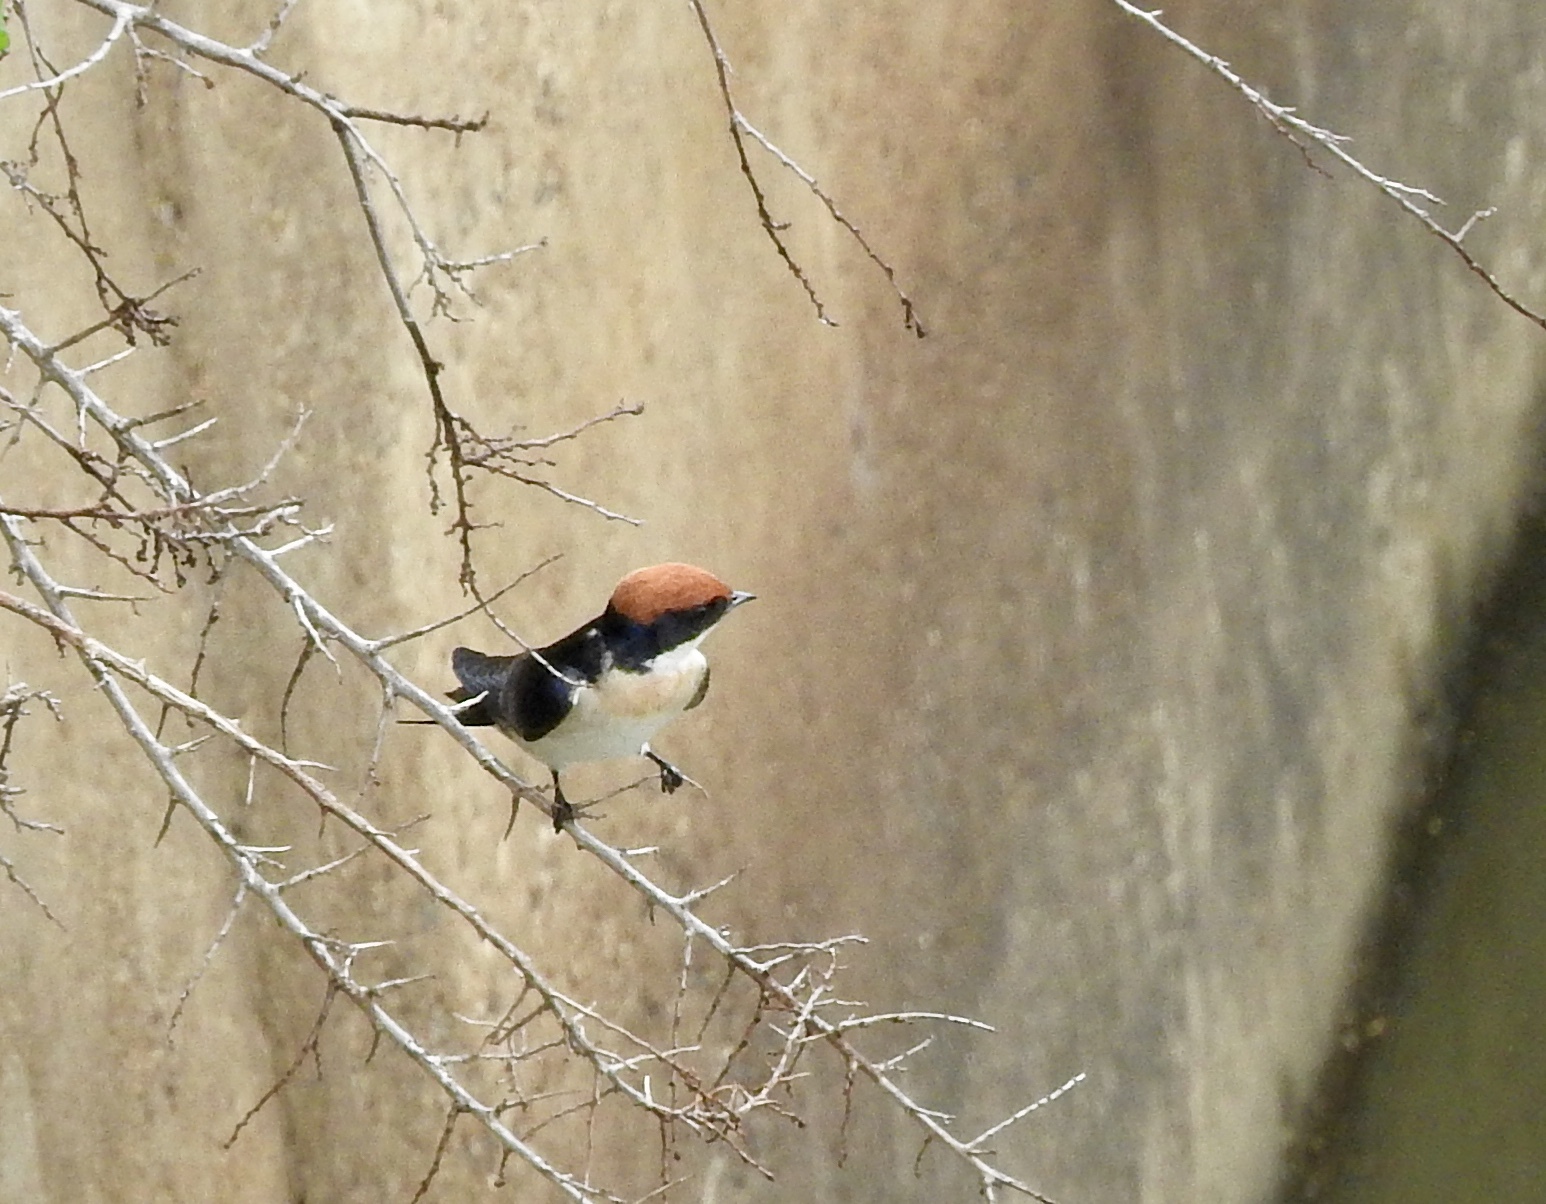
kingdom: Animalia
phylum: Chordata
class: Aves
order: Passeriformes
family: Hirundinidae
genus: Hirundo
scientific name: Hirundo smithii
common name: Wire-tailed swallow
